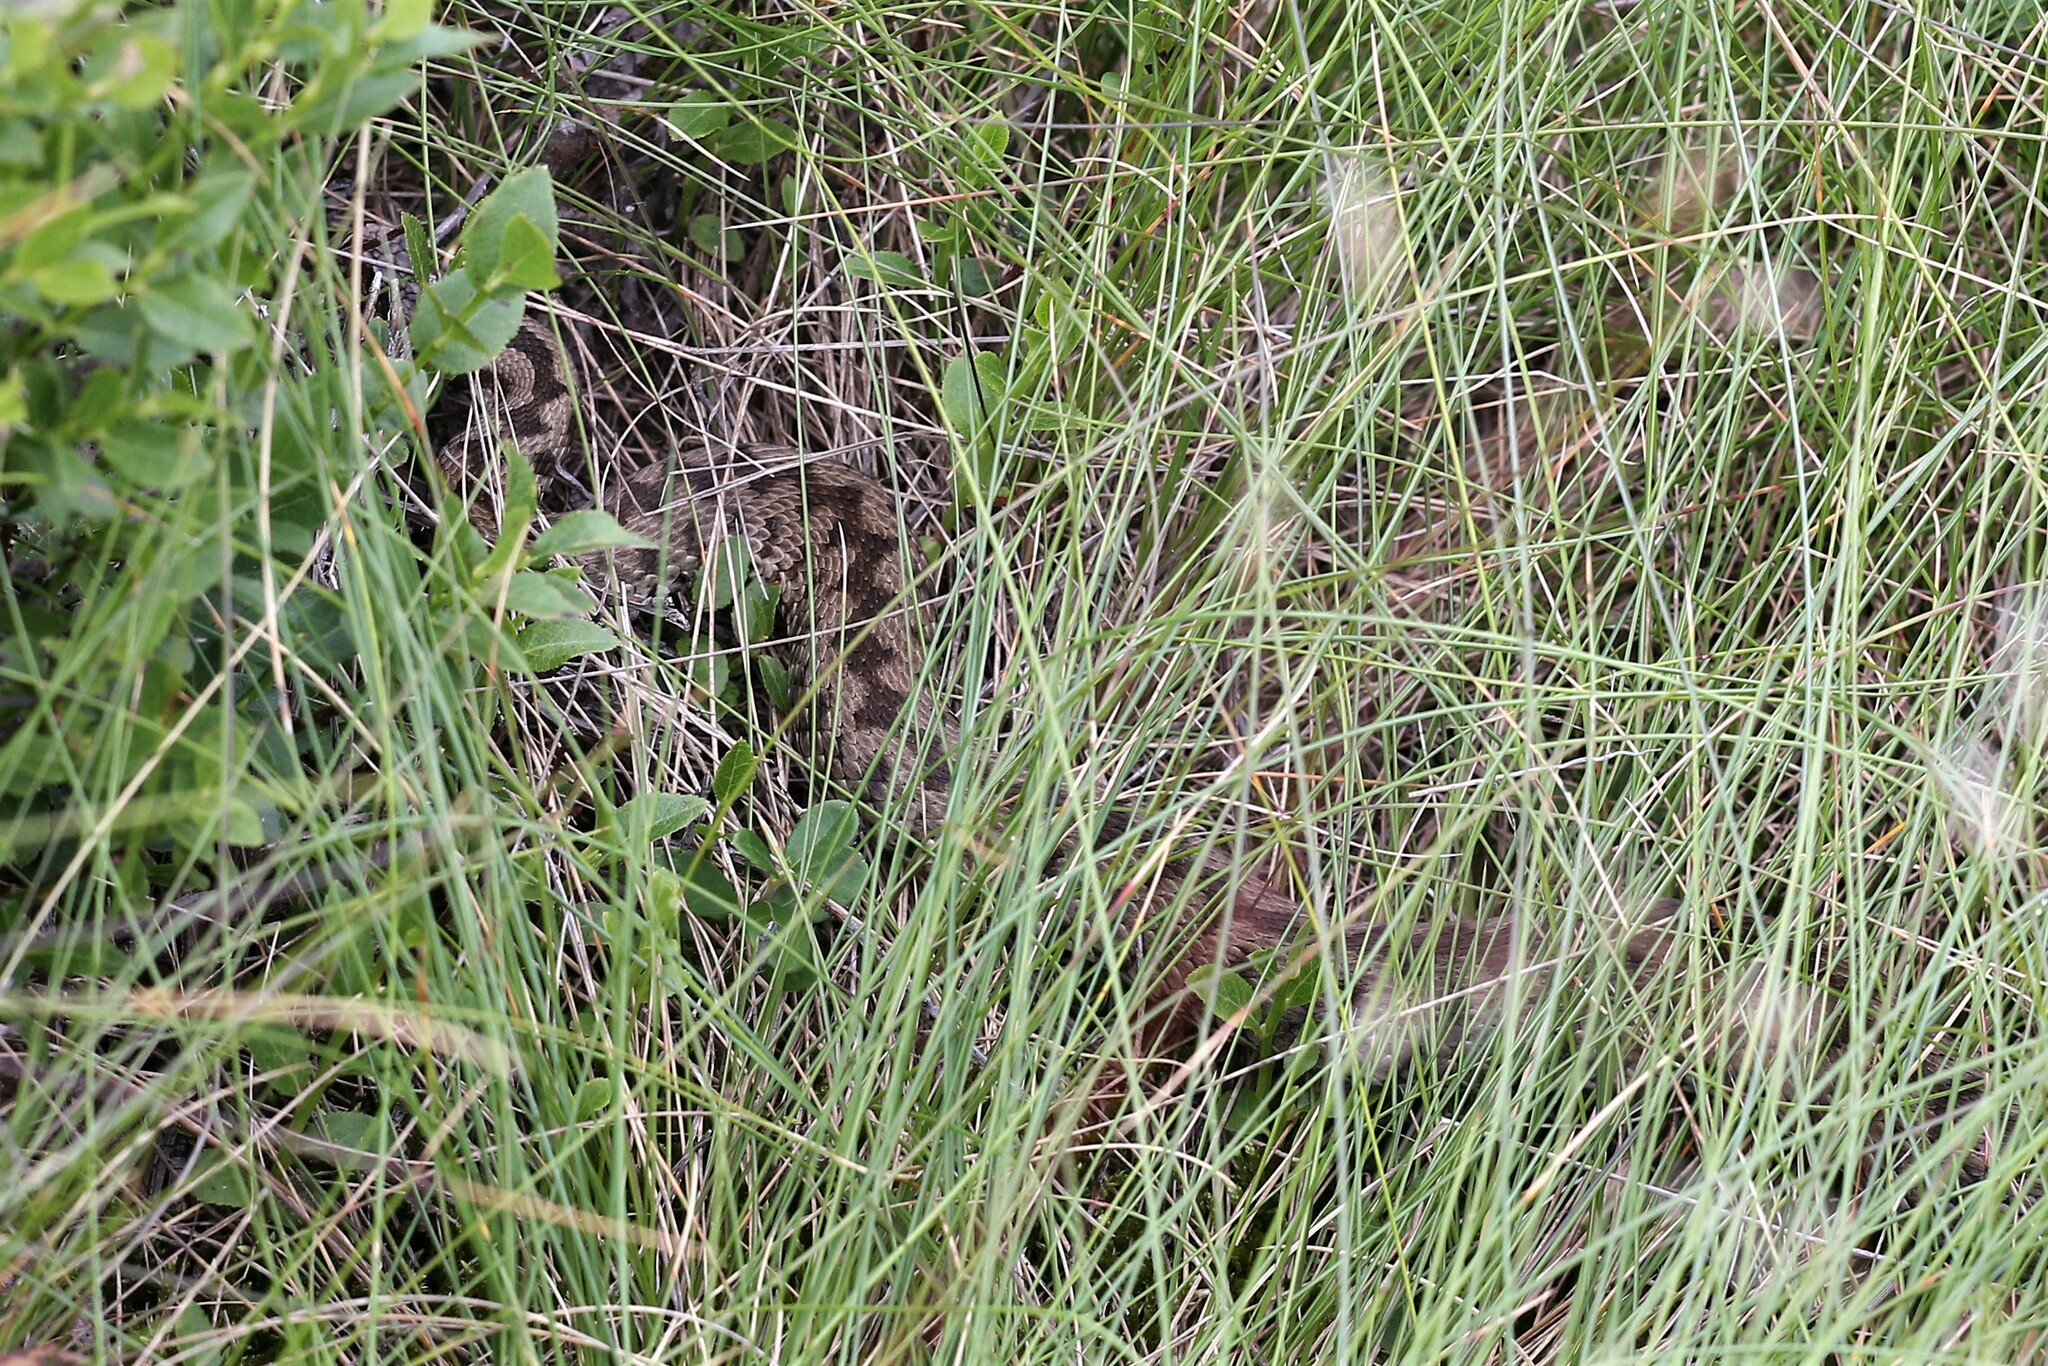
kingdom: Animalia
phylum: Chordata
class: Squamata
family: Viperidae
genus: Vipera
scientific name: Vipera walser
